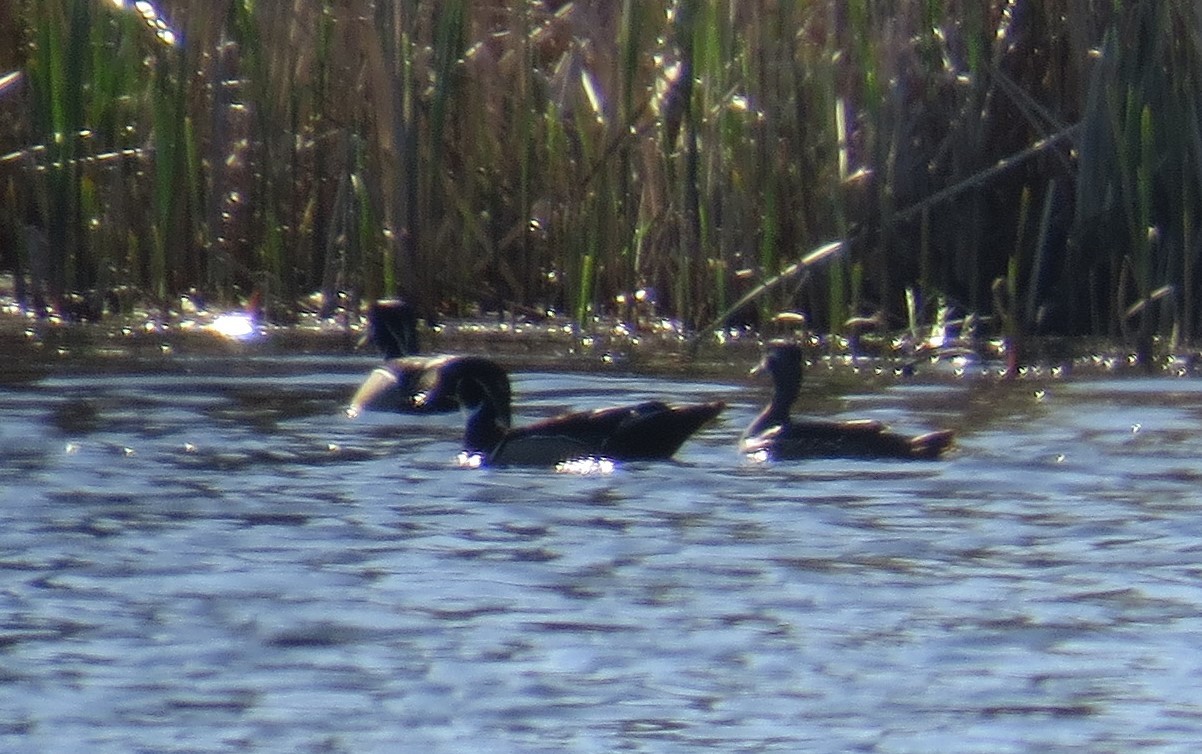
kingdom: Animalia
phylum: Chordata
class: Aves
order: Anseriformes
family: Anatidae
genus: Aix
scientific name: Aix sponsa
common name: Wood duck
